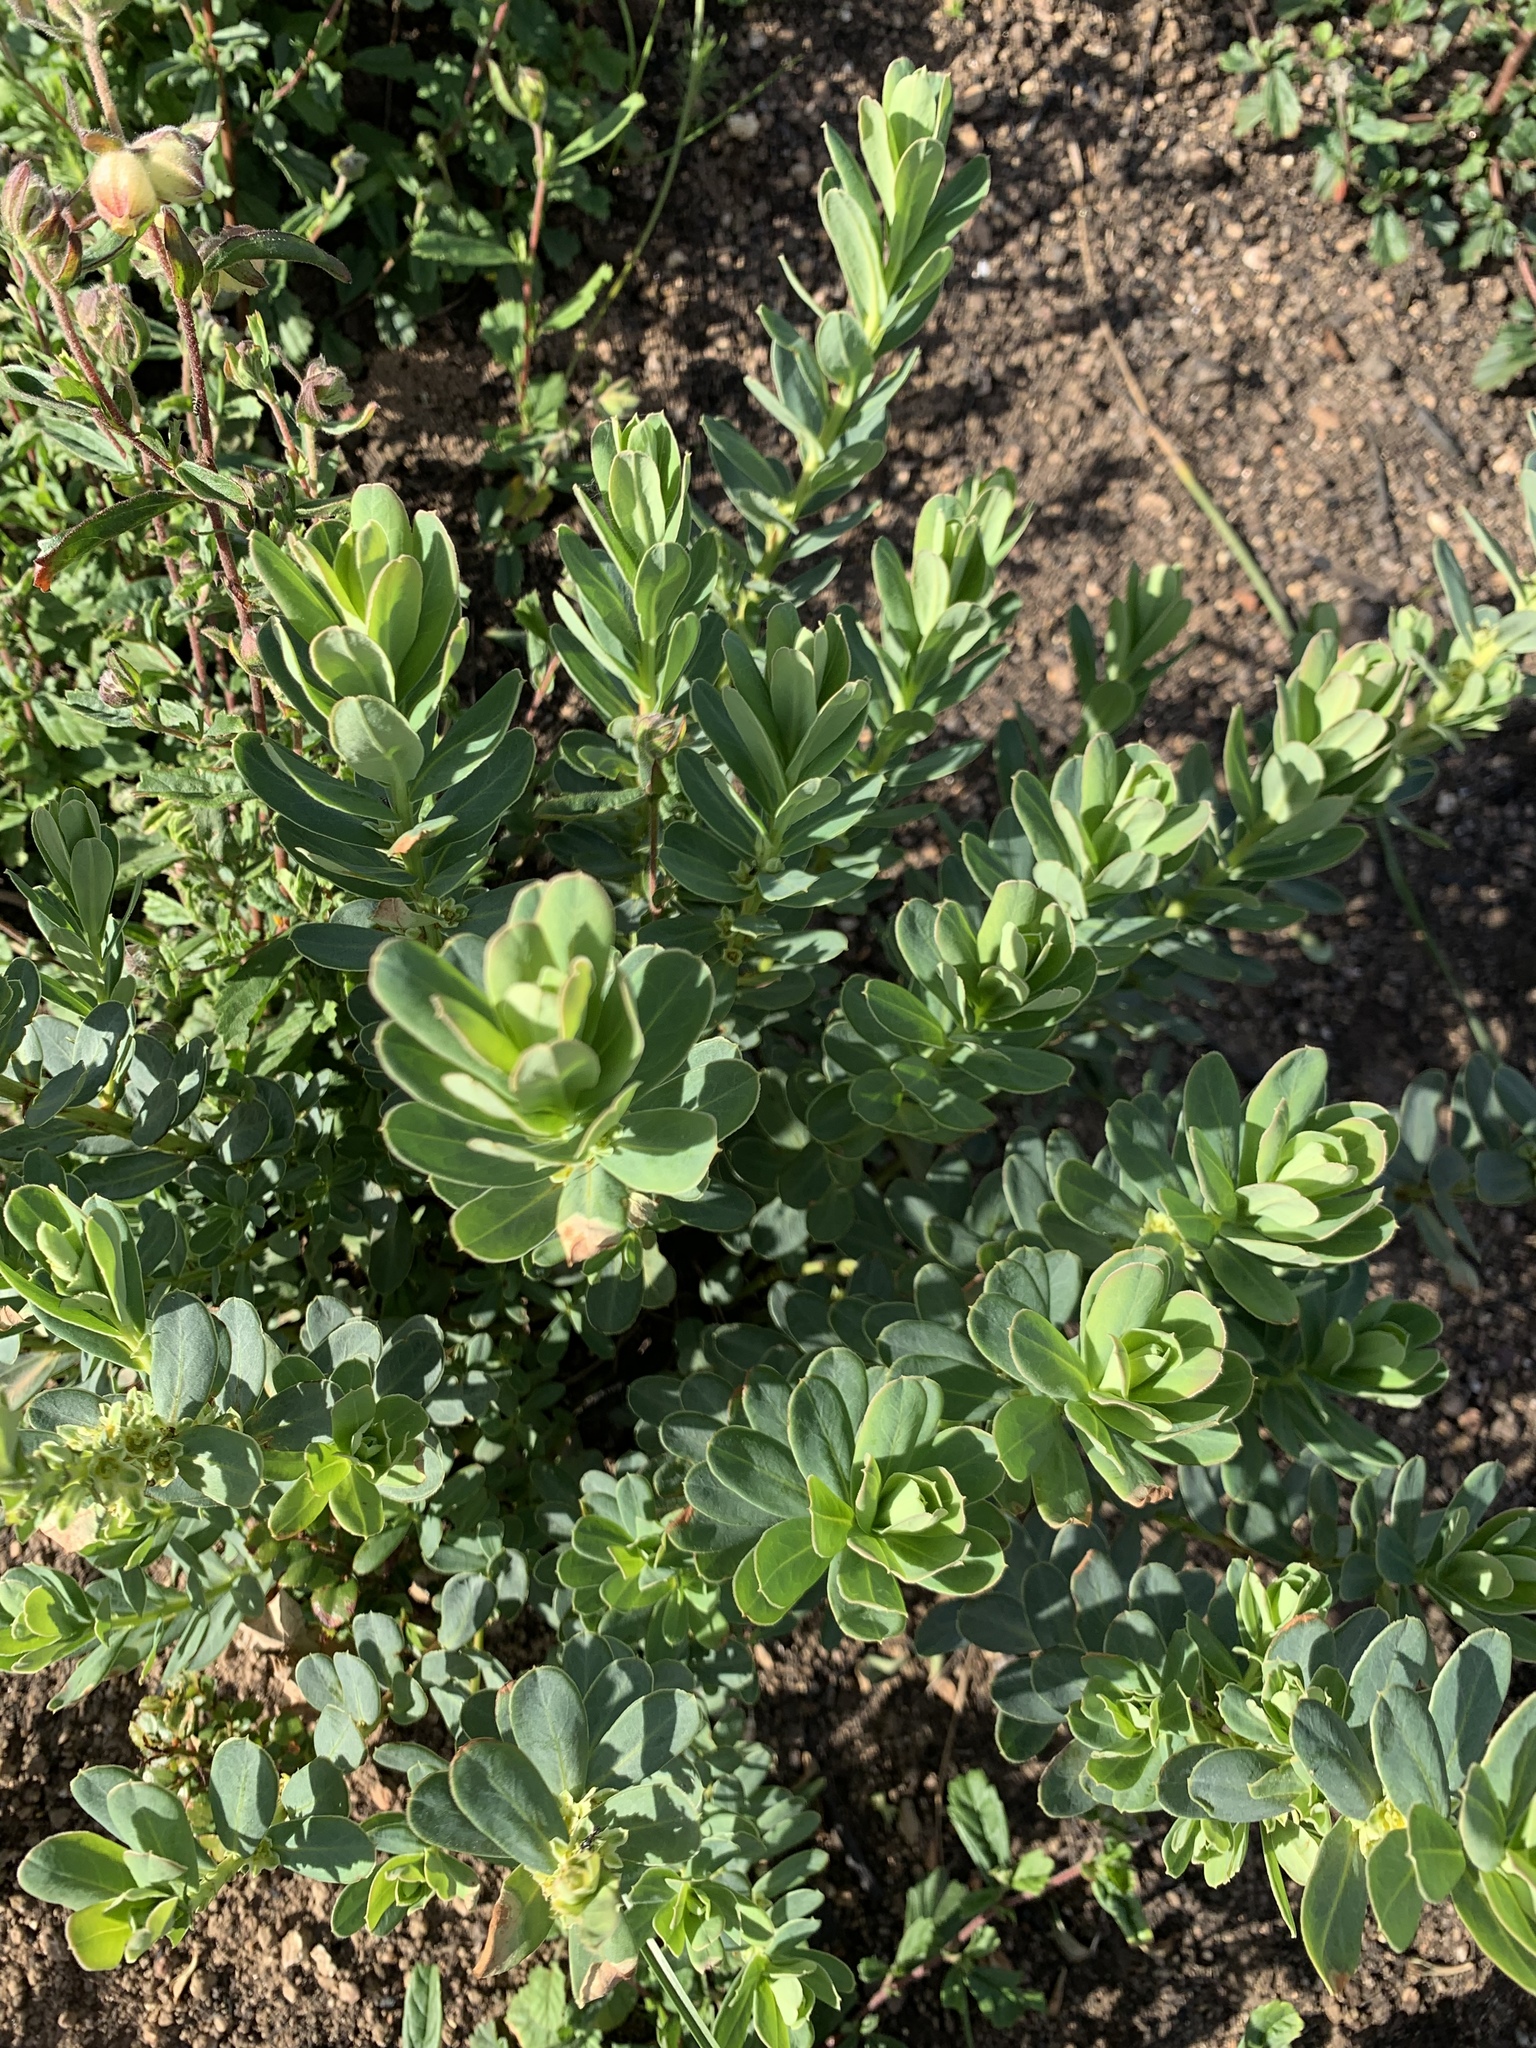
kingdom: Plantae
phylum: Tracheophyta
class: Magnoliopsida
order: Malpighiales
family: Peraceae
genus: Clutia
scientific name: Clutia daphnoides
